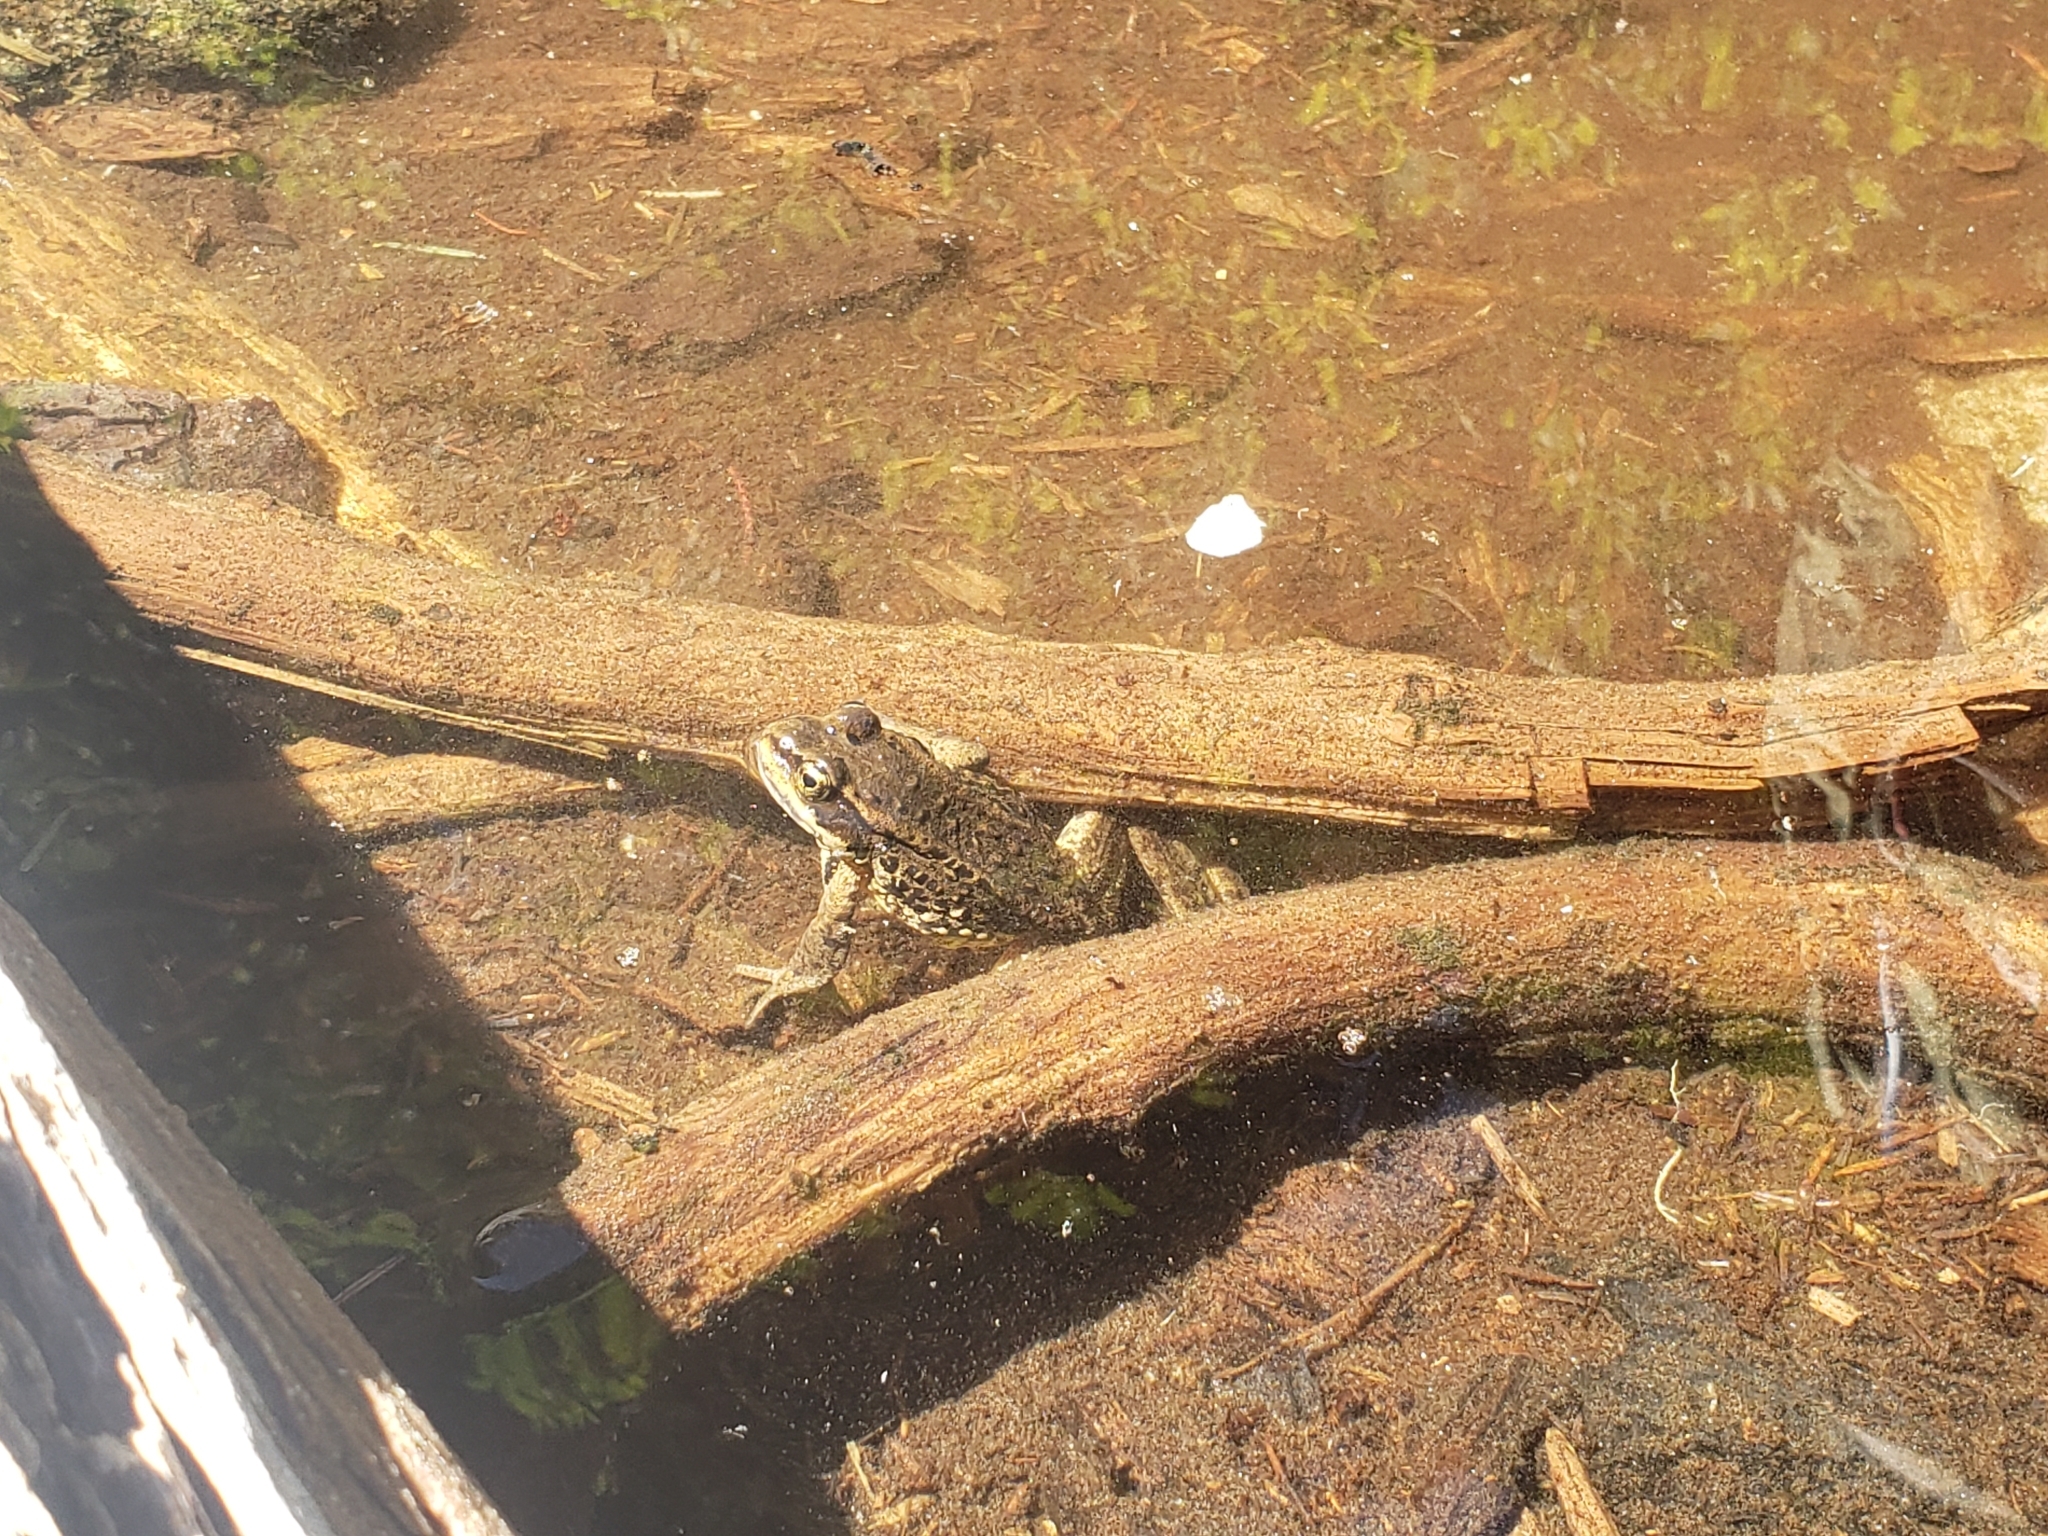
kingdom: Animalia
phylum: Chordata
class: Amphibia
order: Anura
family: Ranidae
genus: Rana
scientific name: Rana cascadae
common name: Cascades frog
